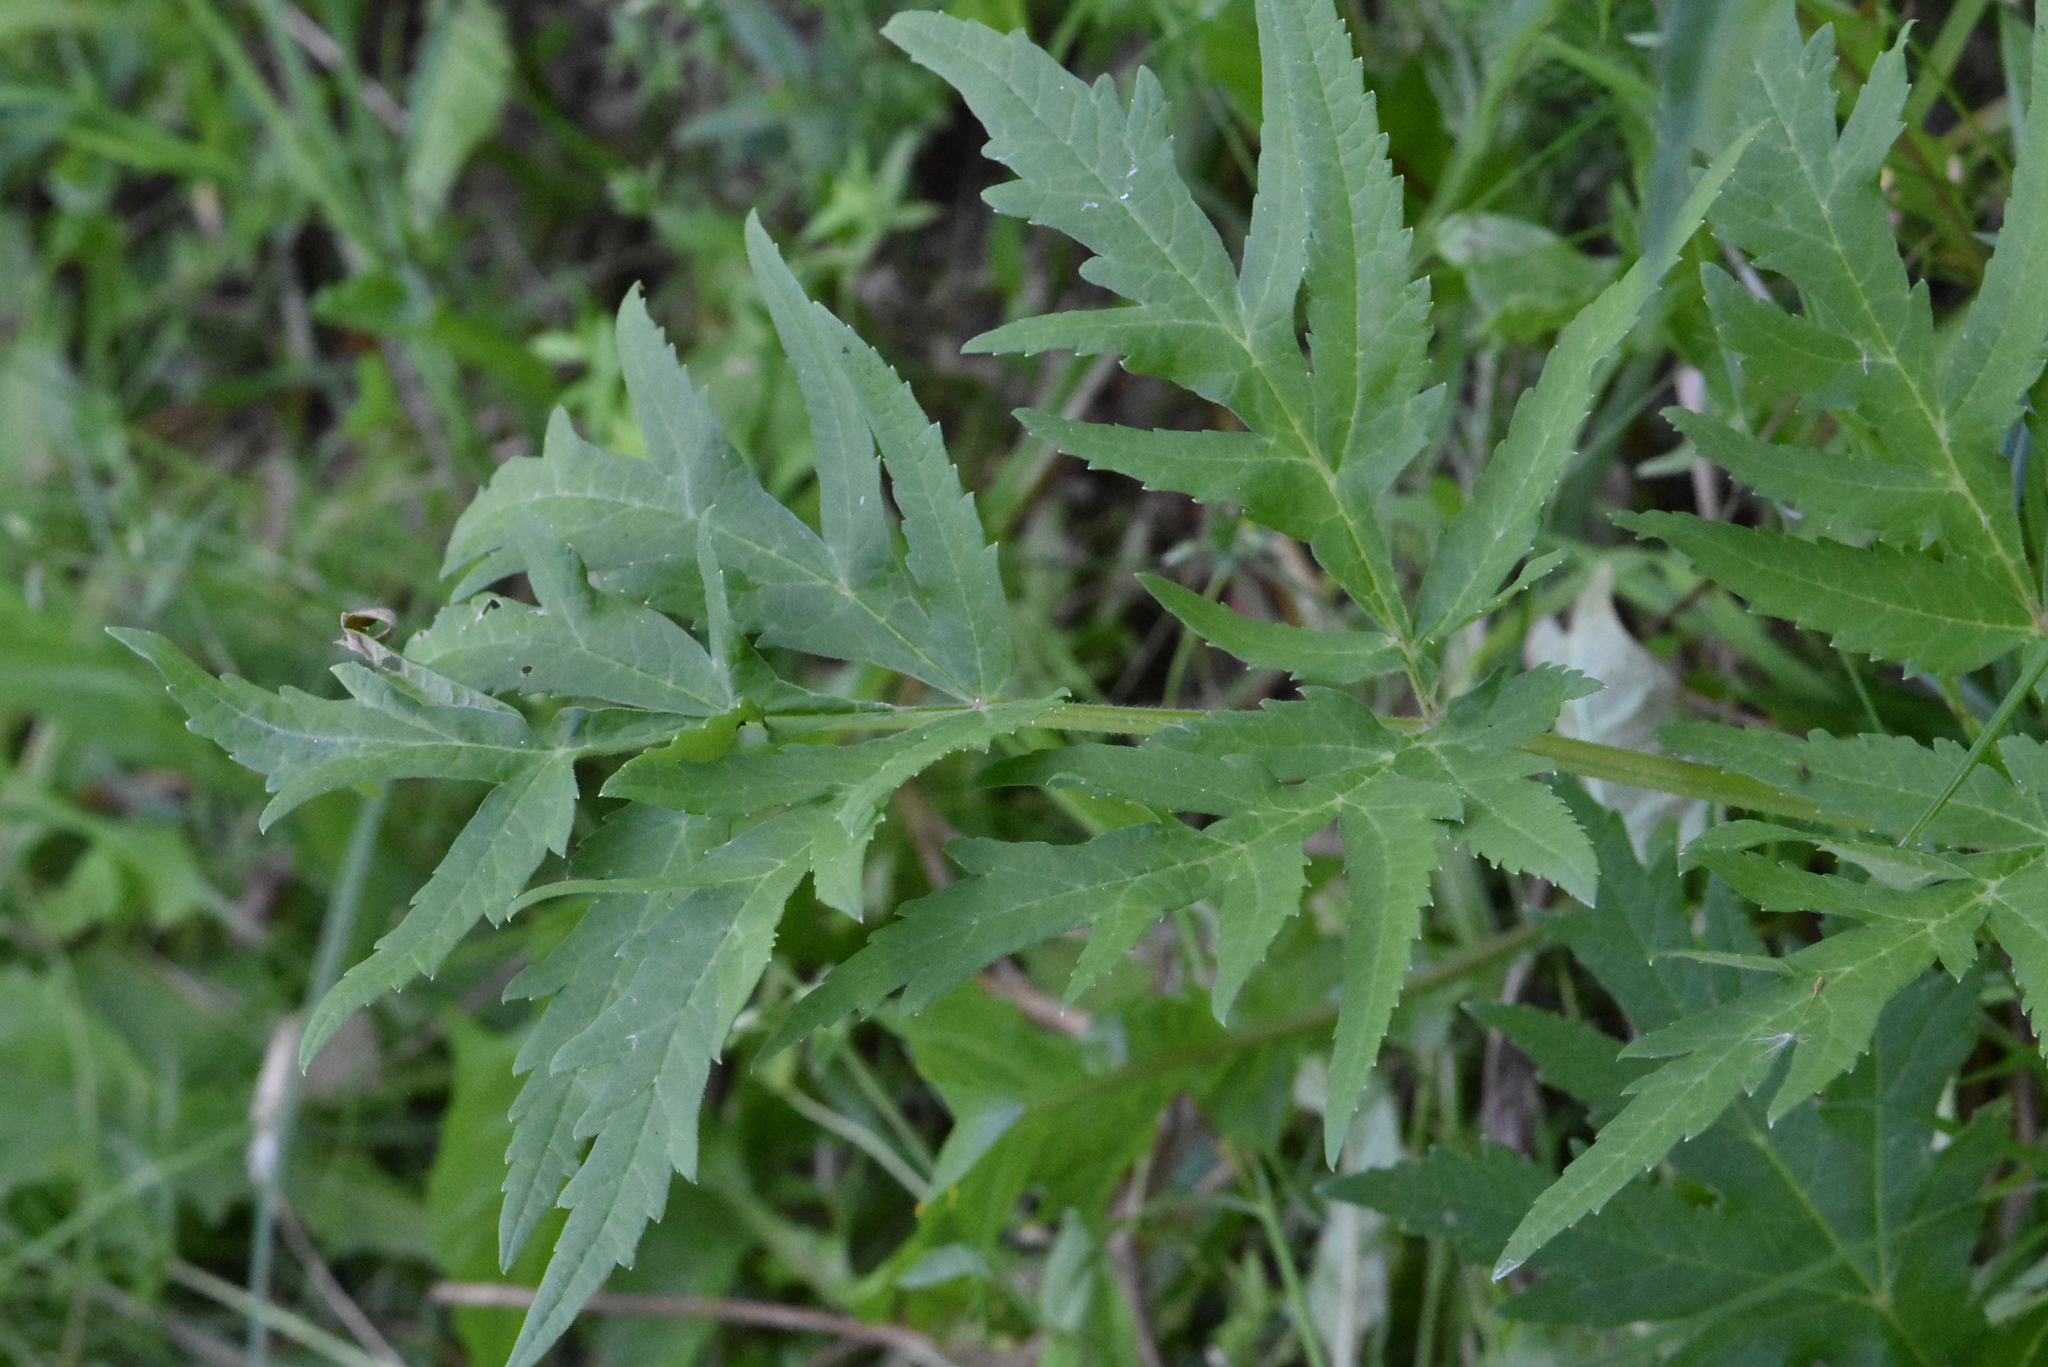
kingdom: Plantae
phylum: Tracheophyta
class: Magnoliopsida
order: Apiales
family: Apiaceae
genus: Heracleum
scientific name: Heracleum sphondylium
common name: Hogweed
